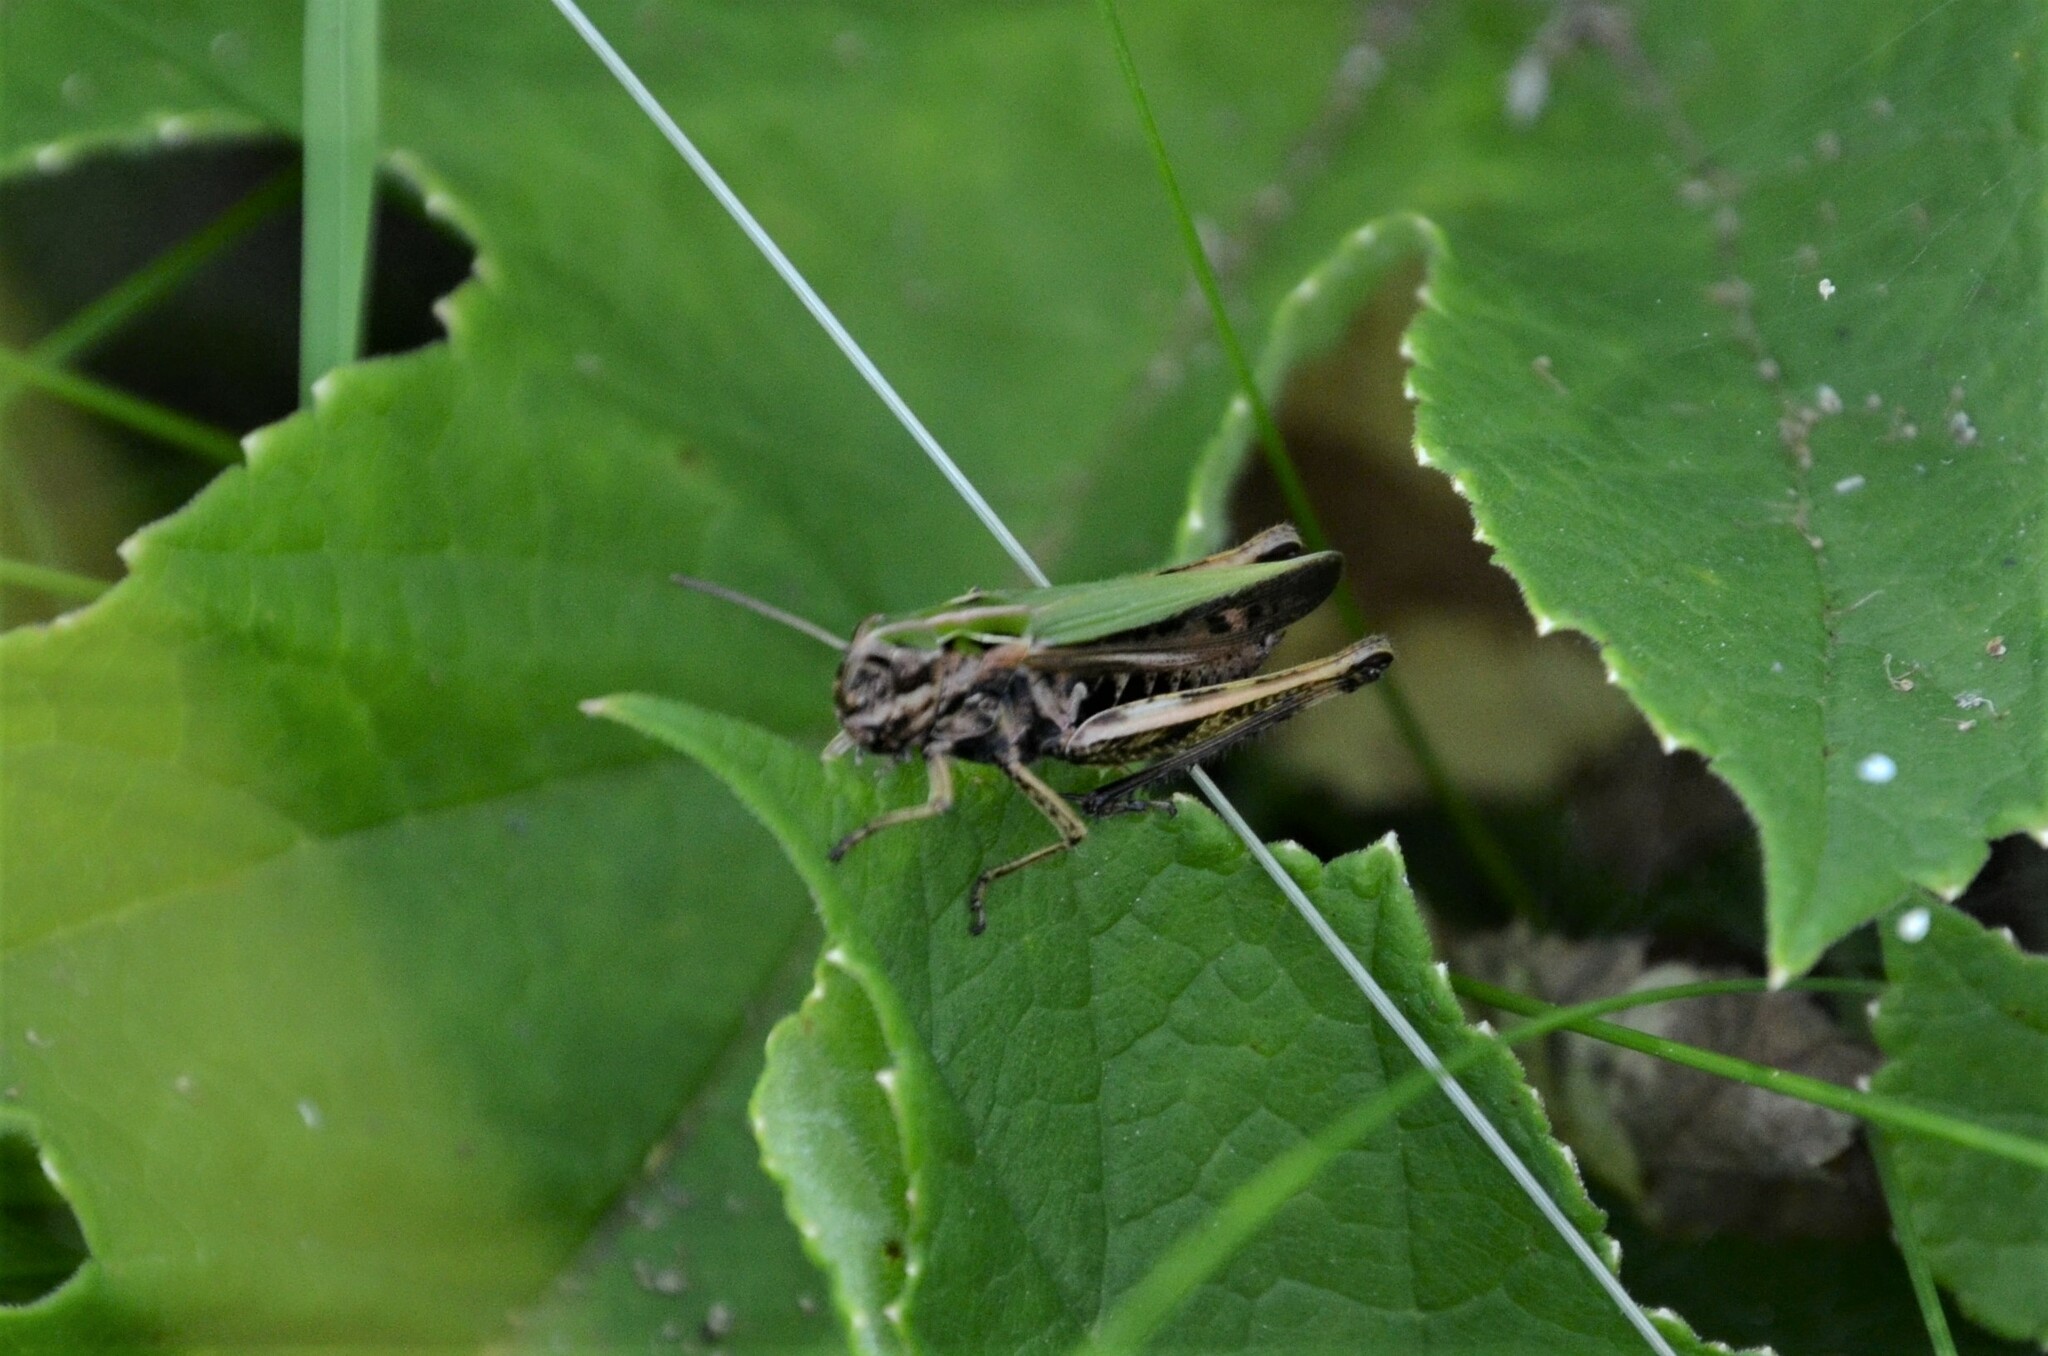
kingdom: Animalia
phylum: Arthropoda
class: Insecta
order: Orthoptera
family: Acrididae
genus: Omocestus
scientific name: Omocestus viridulus
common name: Common green grasshopper
